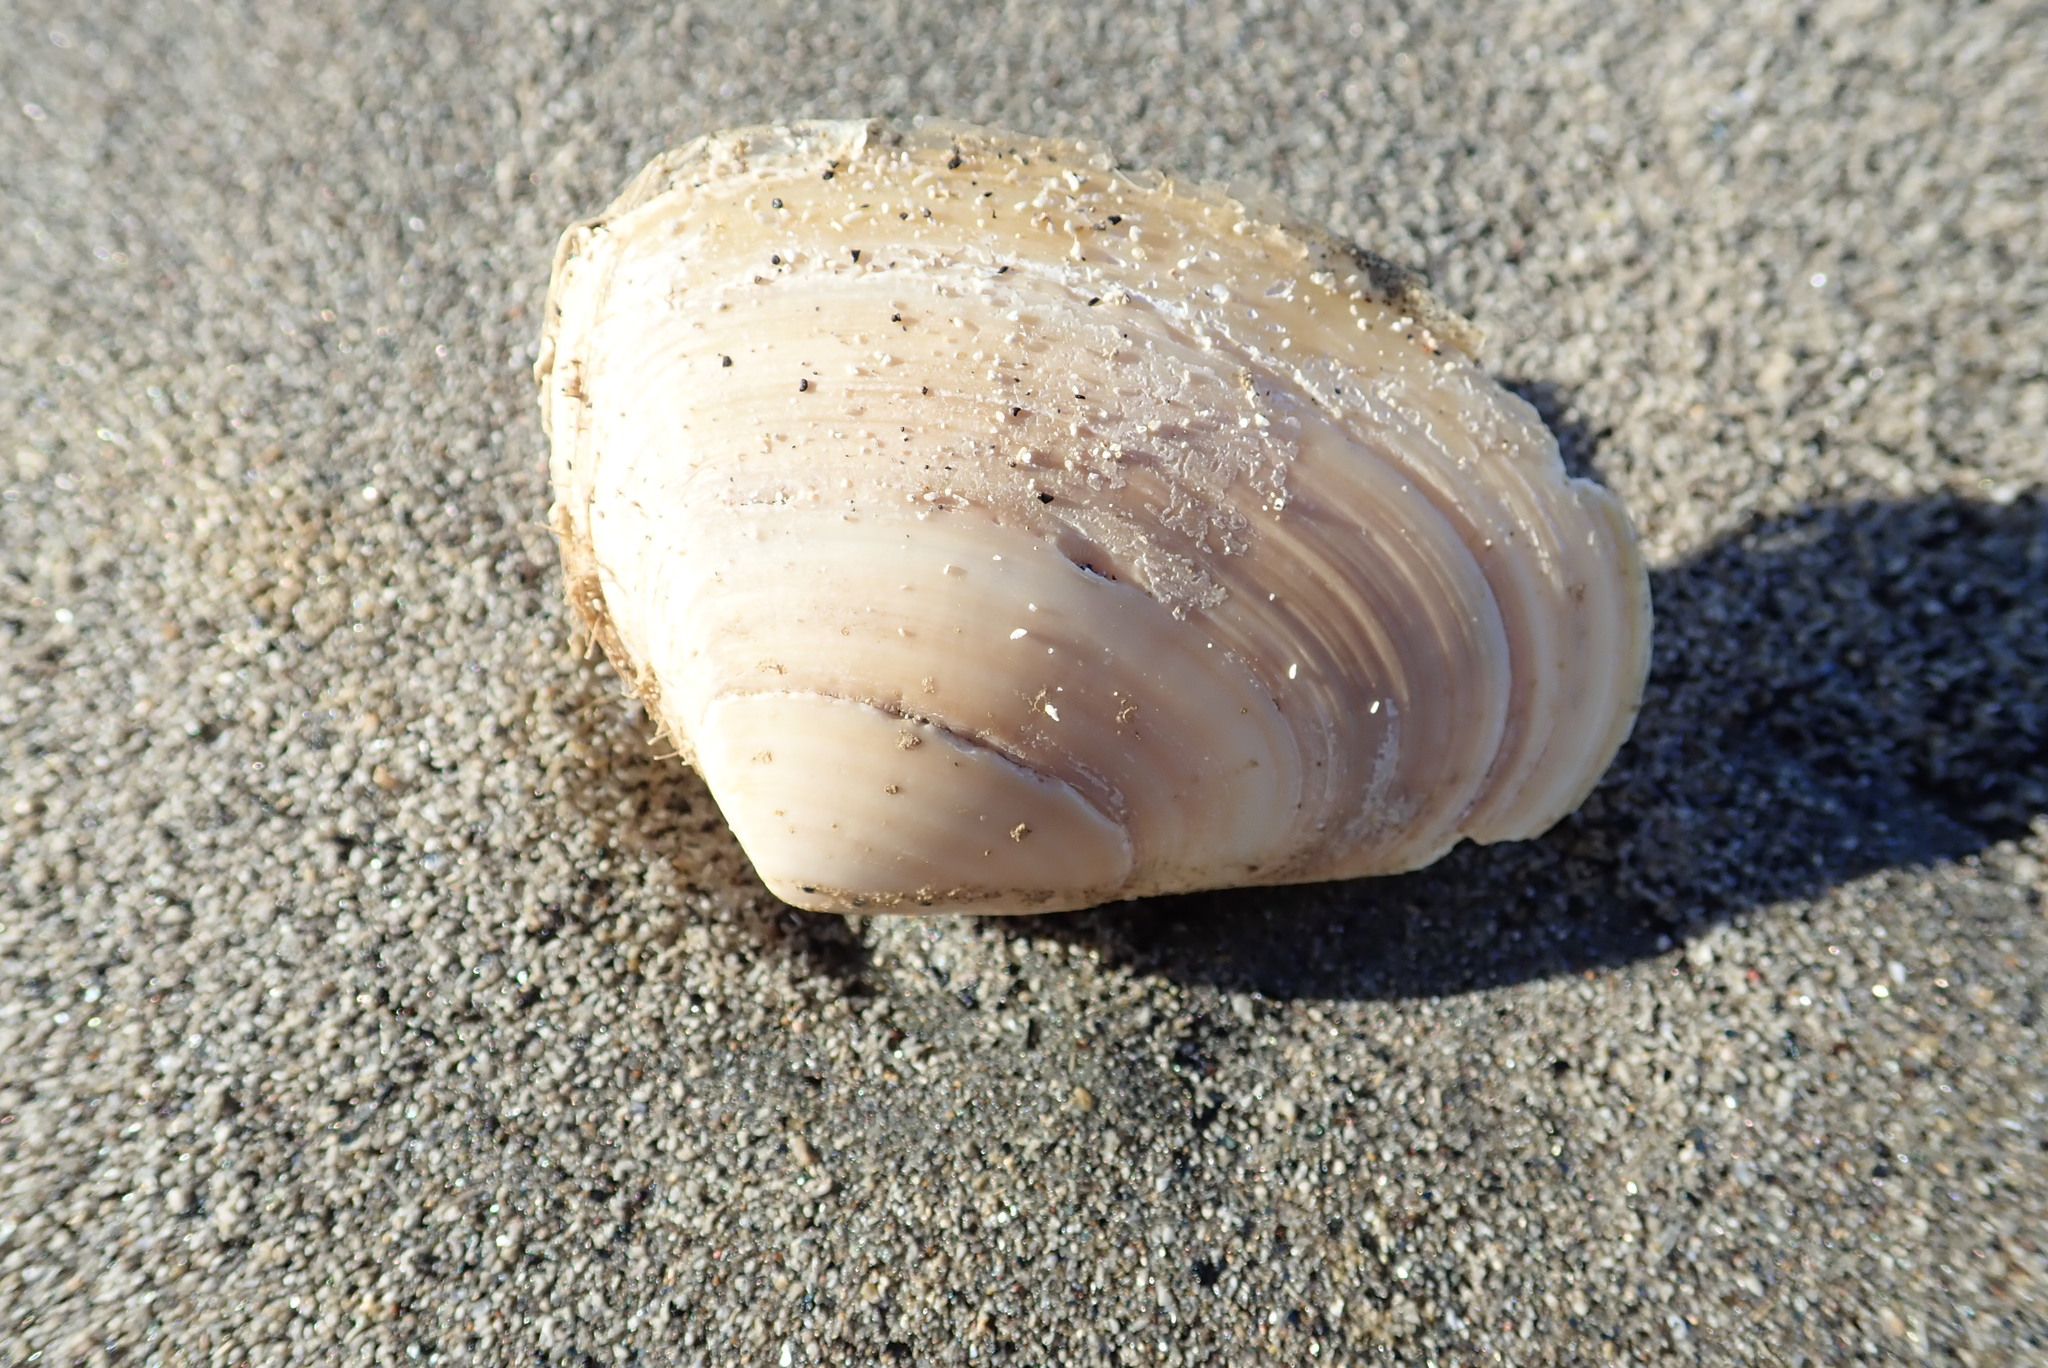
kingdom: Animalia
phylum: Mollusca
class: Bivalvia
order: Venerida
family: Mesodesmatidae
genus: Paphies
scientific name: Paphies donacina
